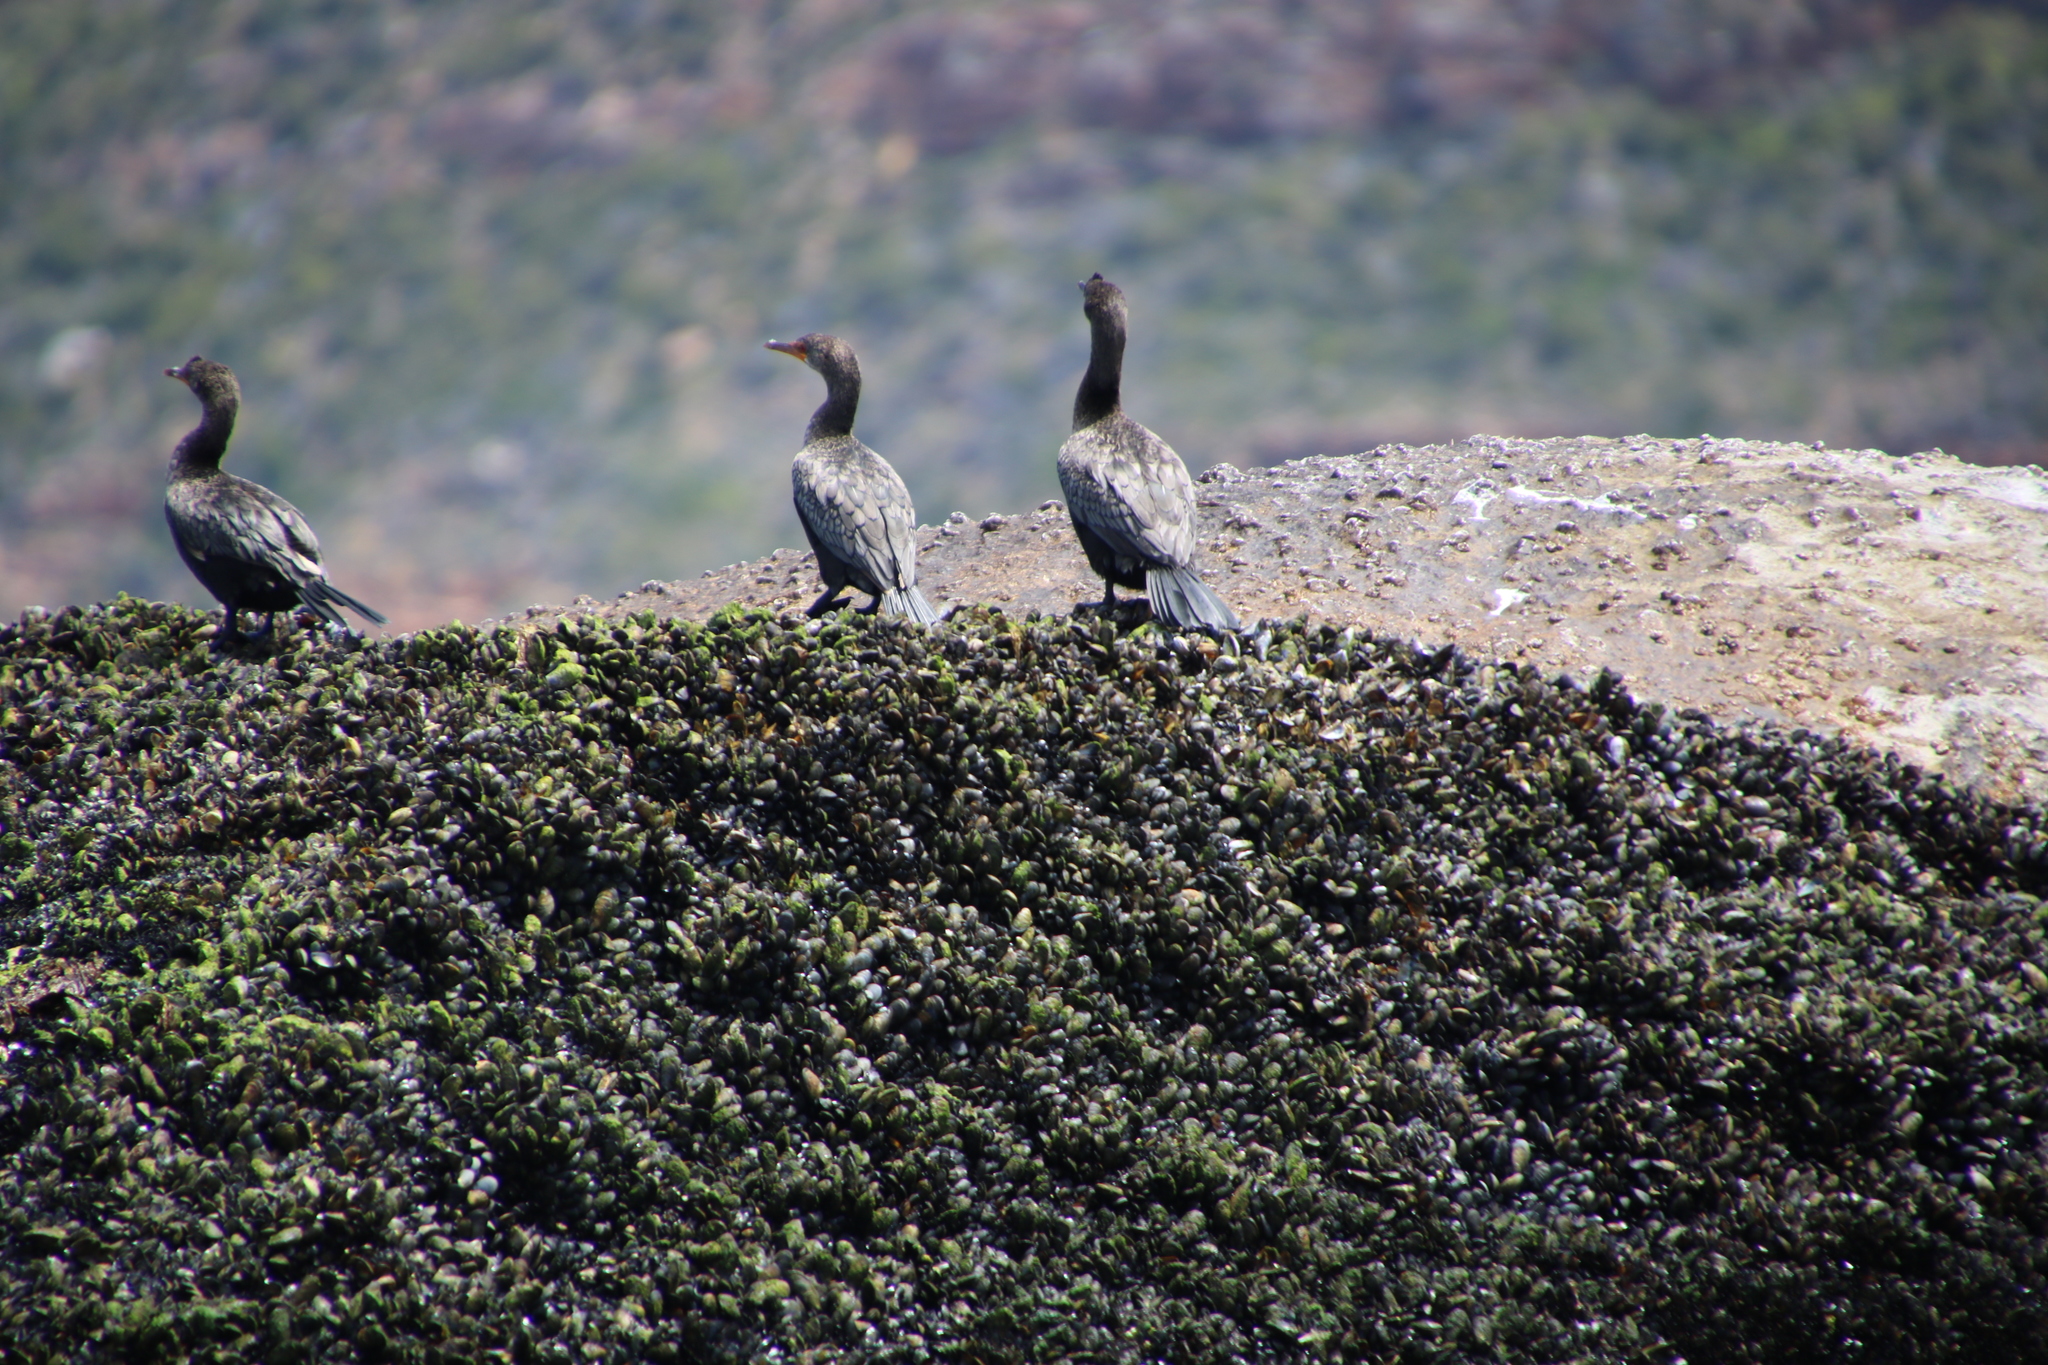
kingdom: Animalia
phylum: Chordata
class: Aves
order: Suliformes
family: Phalacrocoracidae
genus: Microcarbo
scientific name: Microcarbo coronatus
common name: Crowned cormorant
